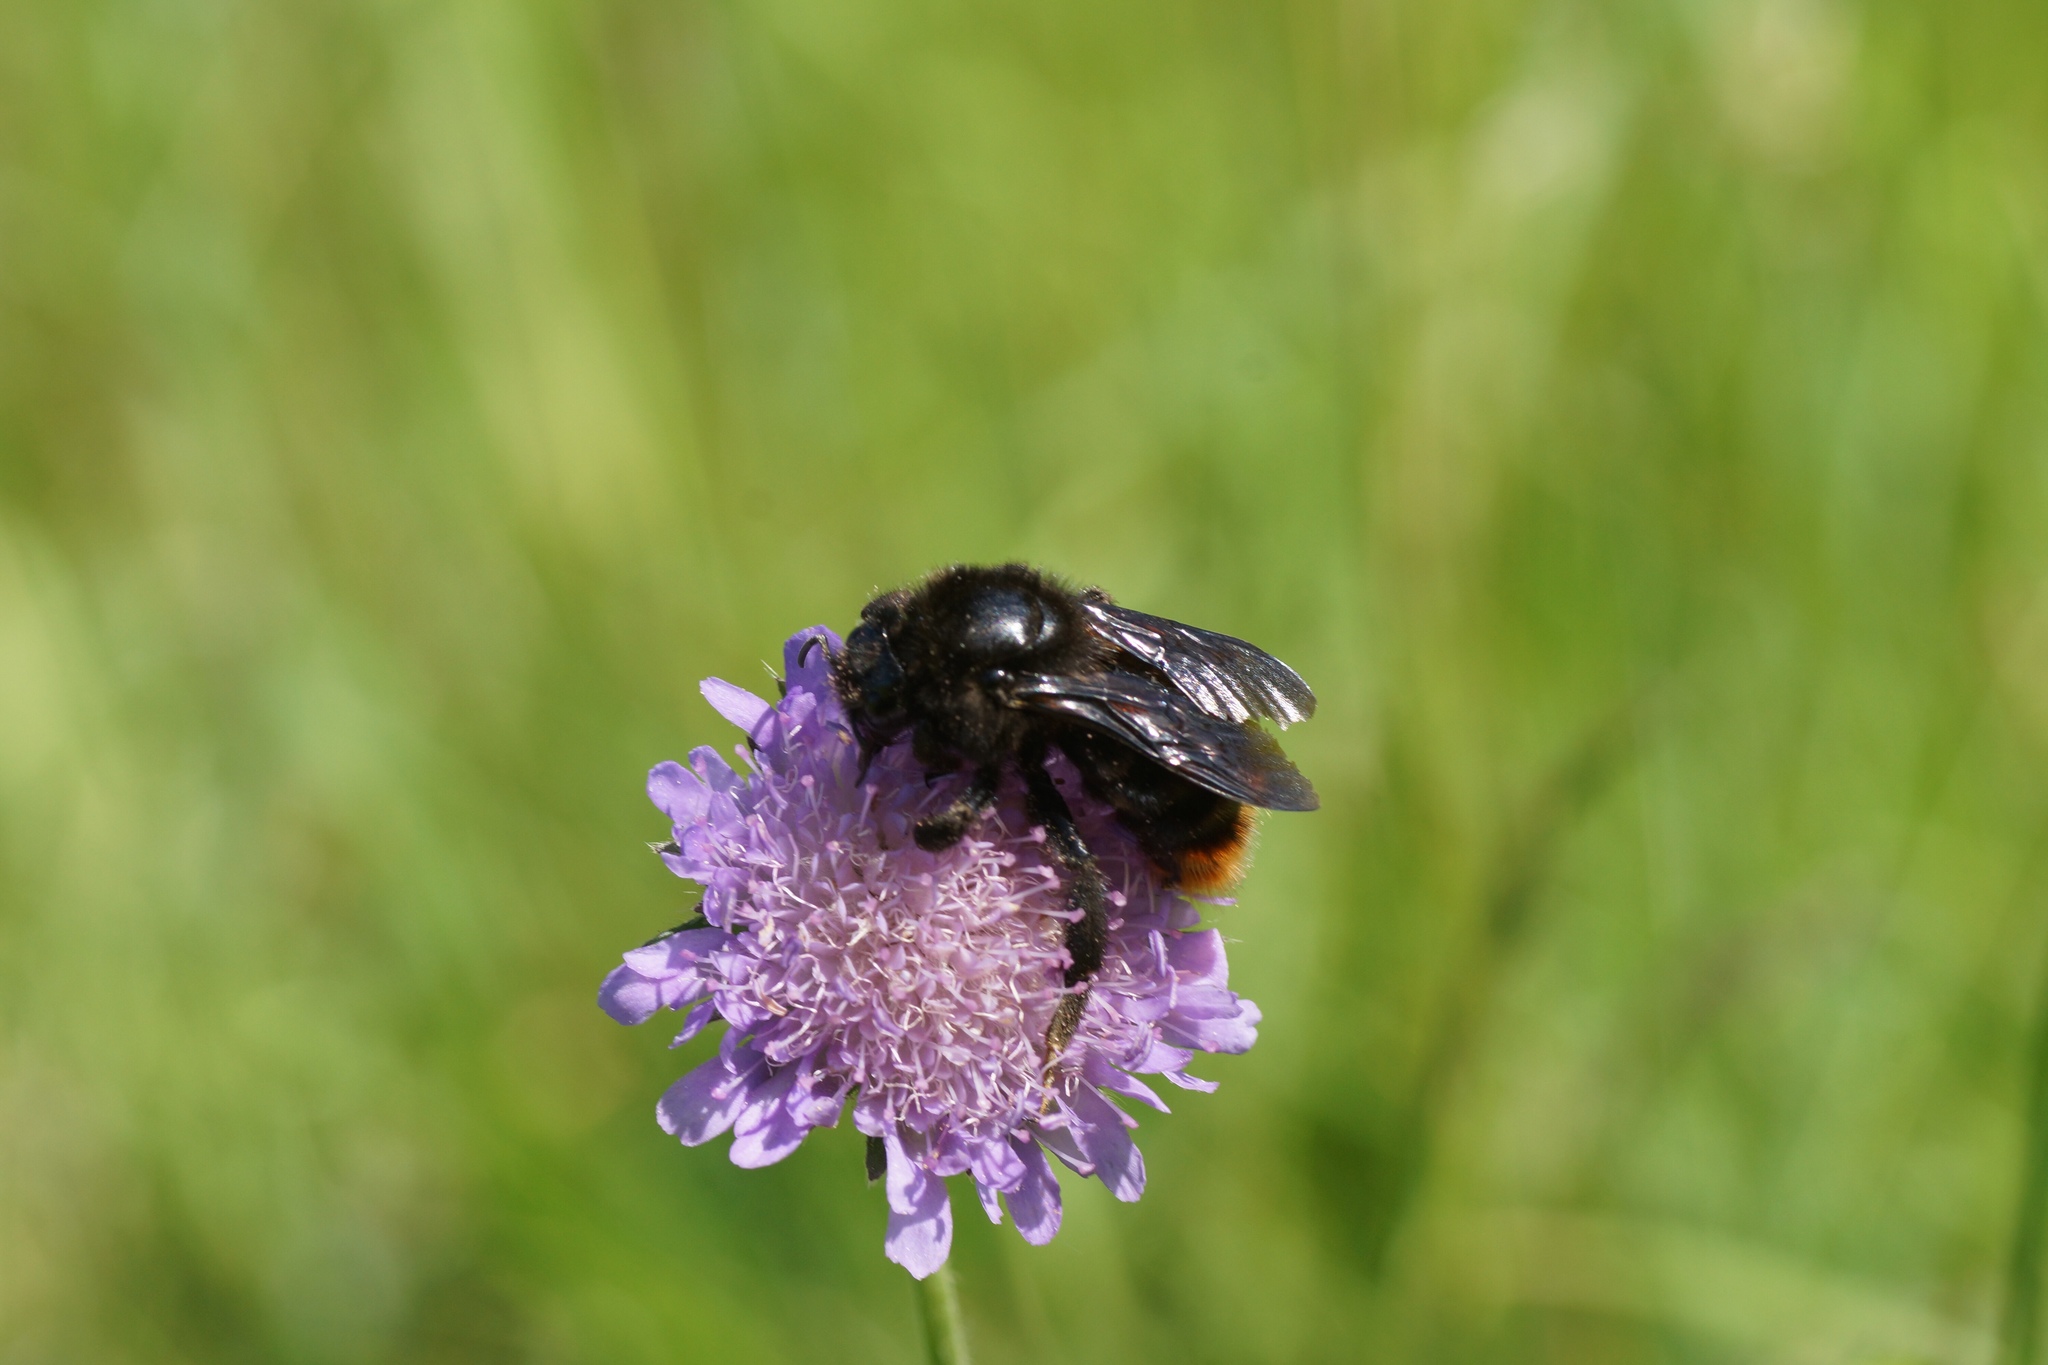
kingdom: Animalia
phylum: Arthropoda
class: Insecta
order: Hymenoptera
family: Apidae
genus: Bombus
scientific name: Bombus rupestris
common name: Hill cuckoo-bee
